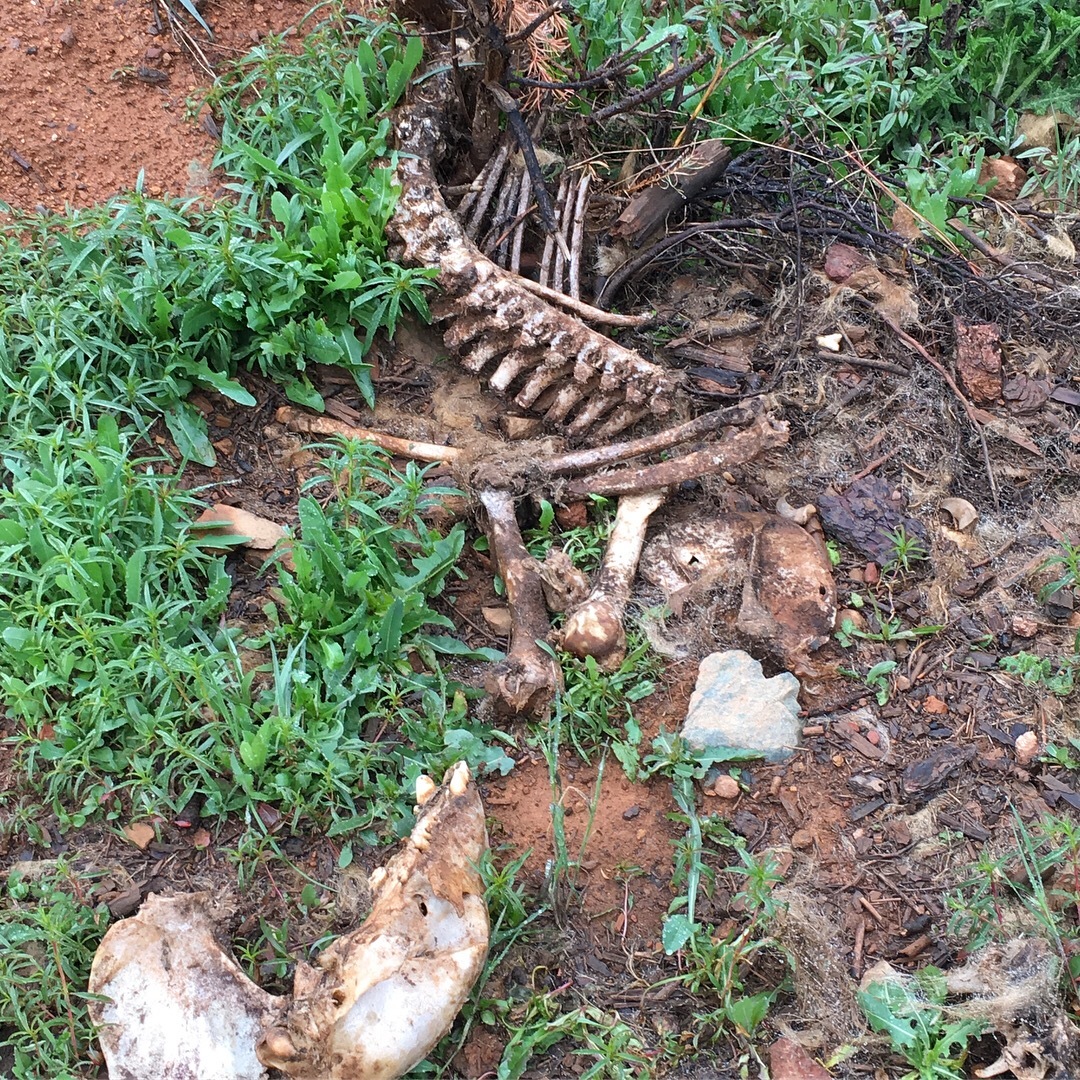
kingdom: Animalia
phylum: Chordata
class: Mammalia
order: Carnivora
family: Ursidae
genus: Ursus
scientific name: Ursus americanus
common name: American black bear
